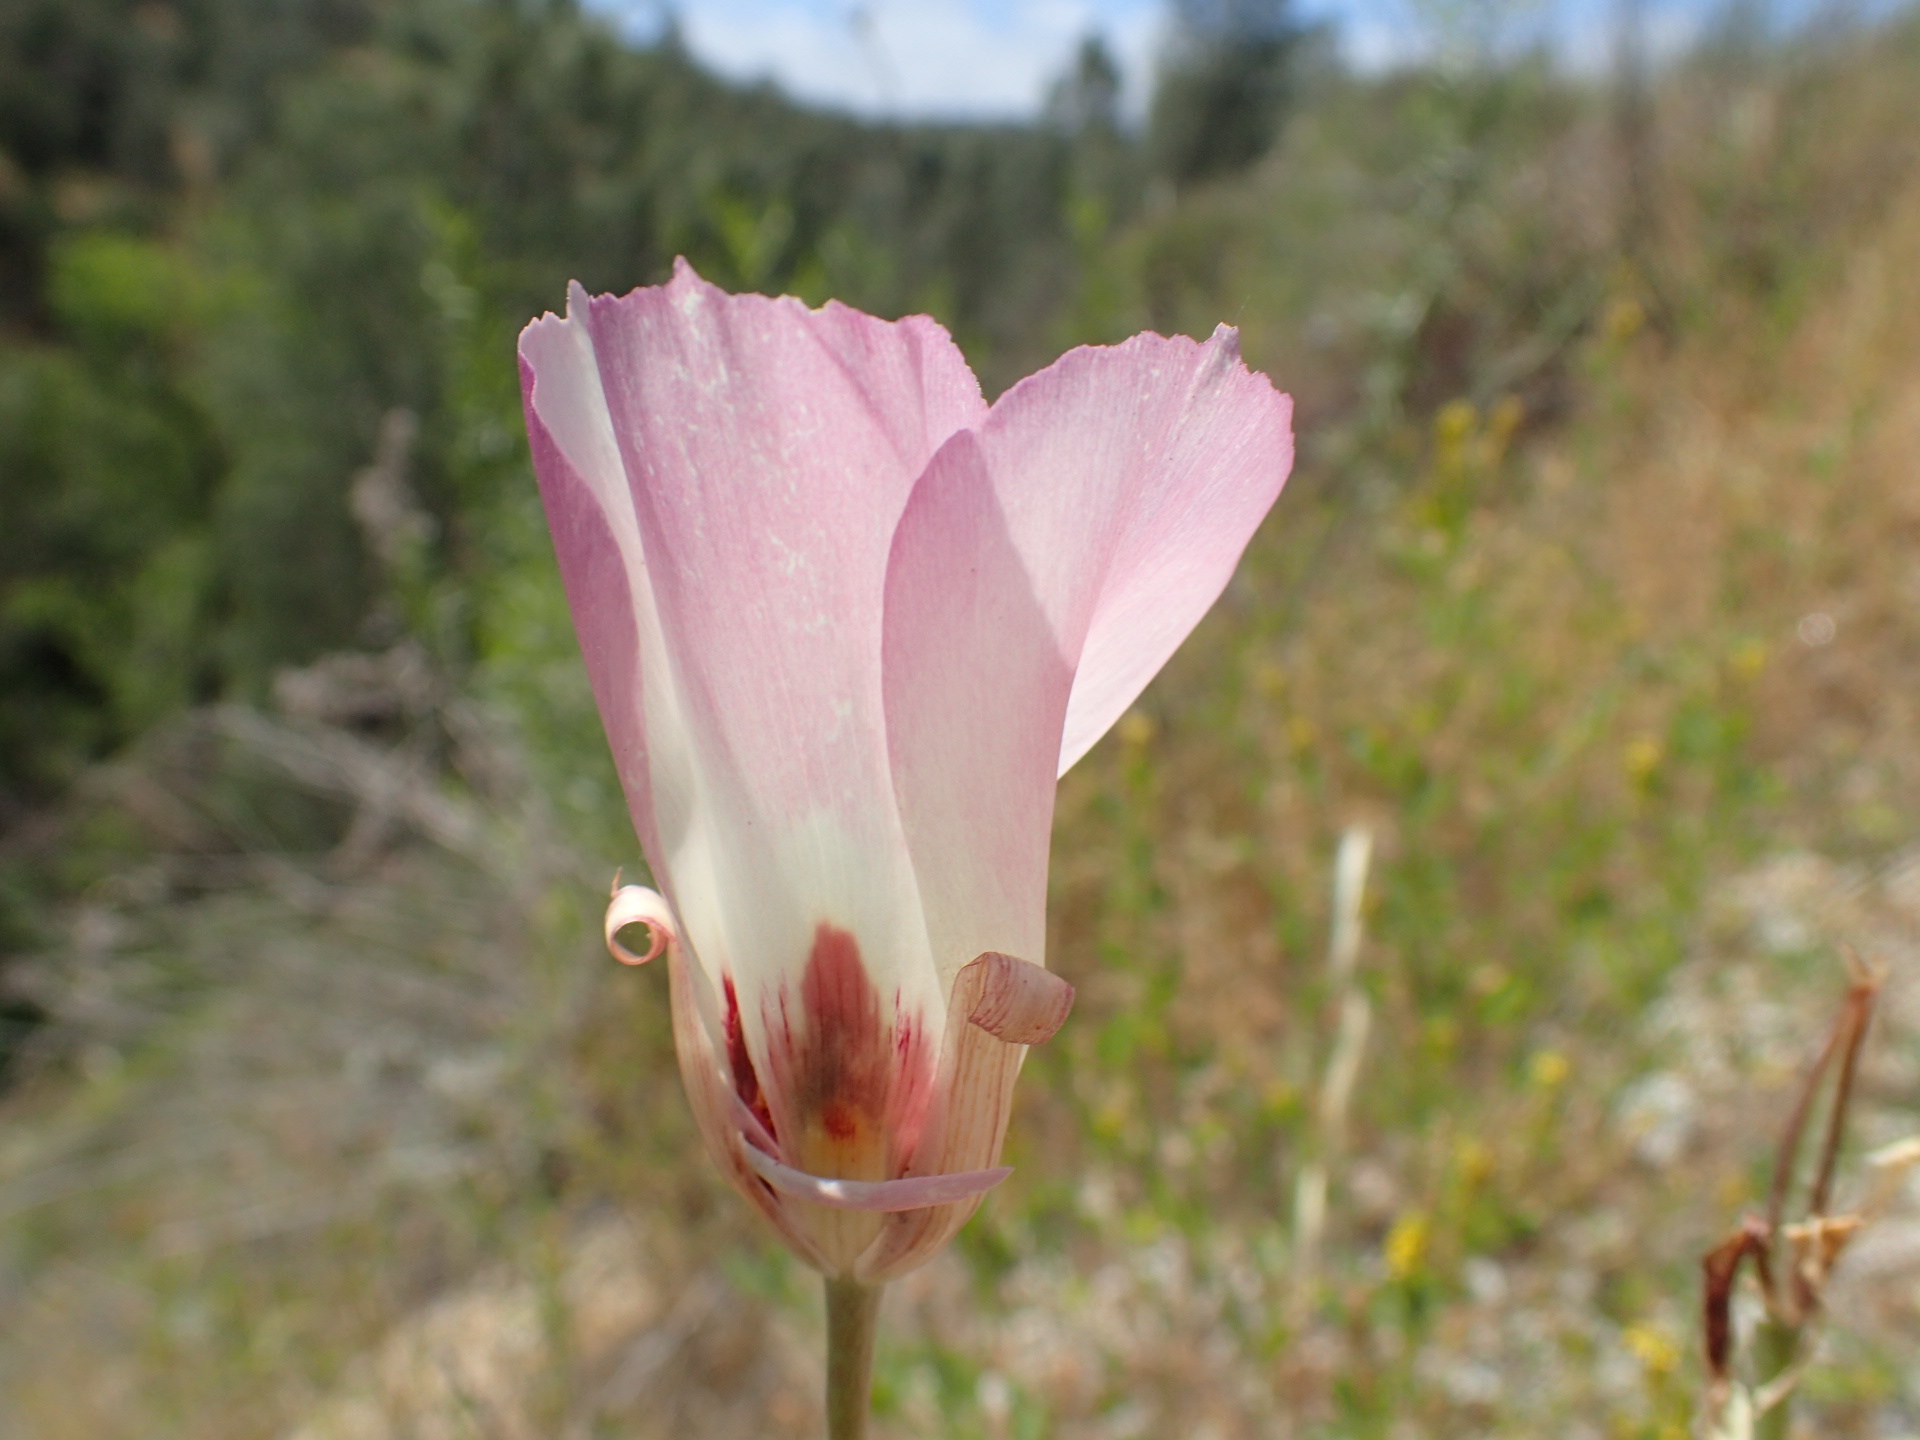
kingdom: Plantae
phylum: Tracheophyta
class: Liliopsida
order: Liliales
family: Liliaceae
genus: Calochortus
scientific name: Calochortus simulans
